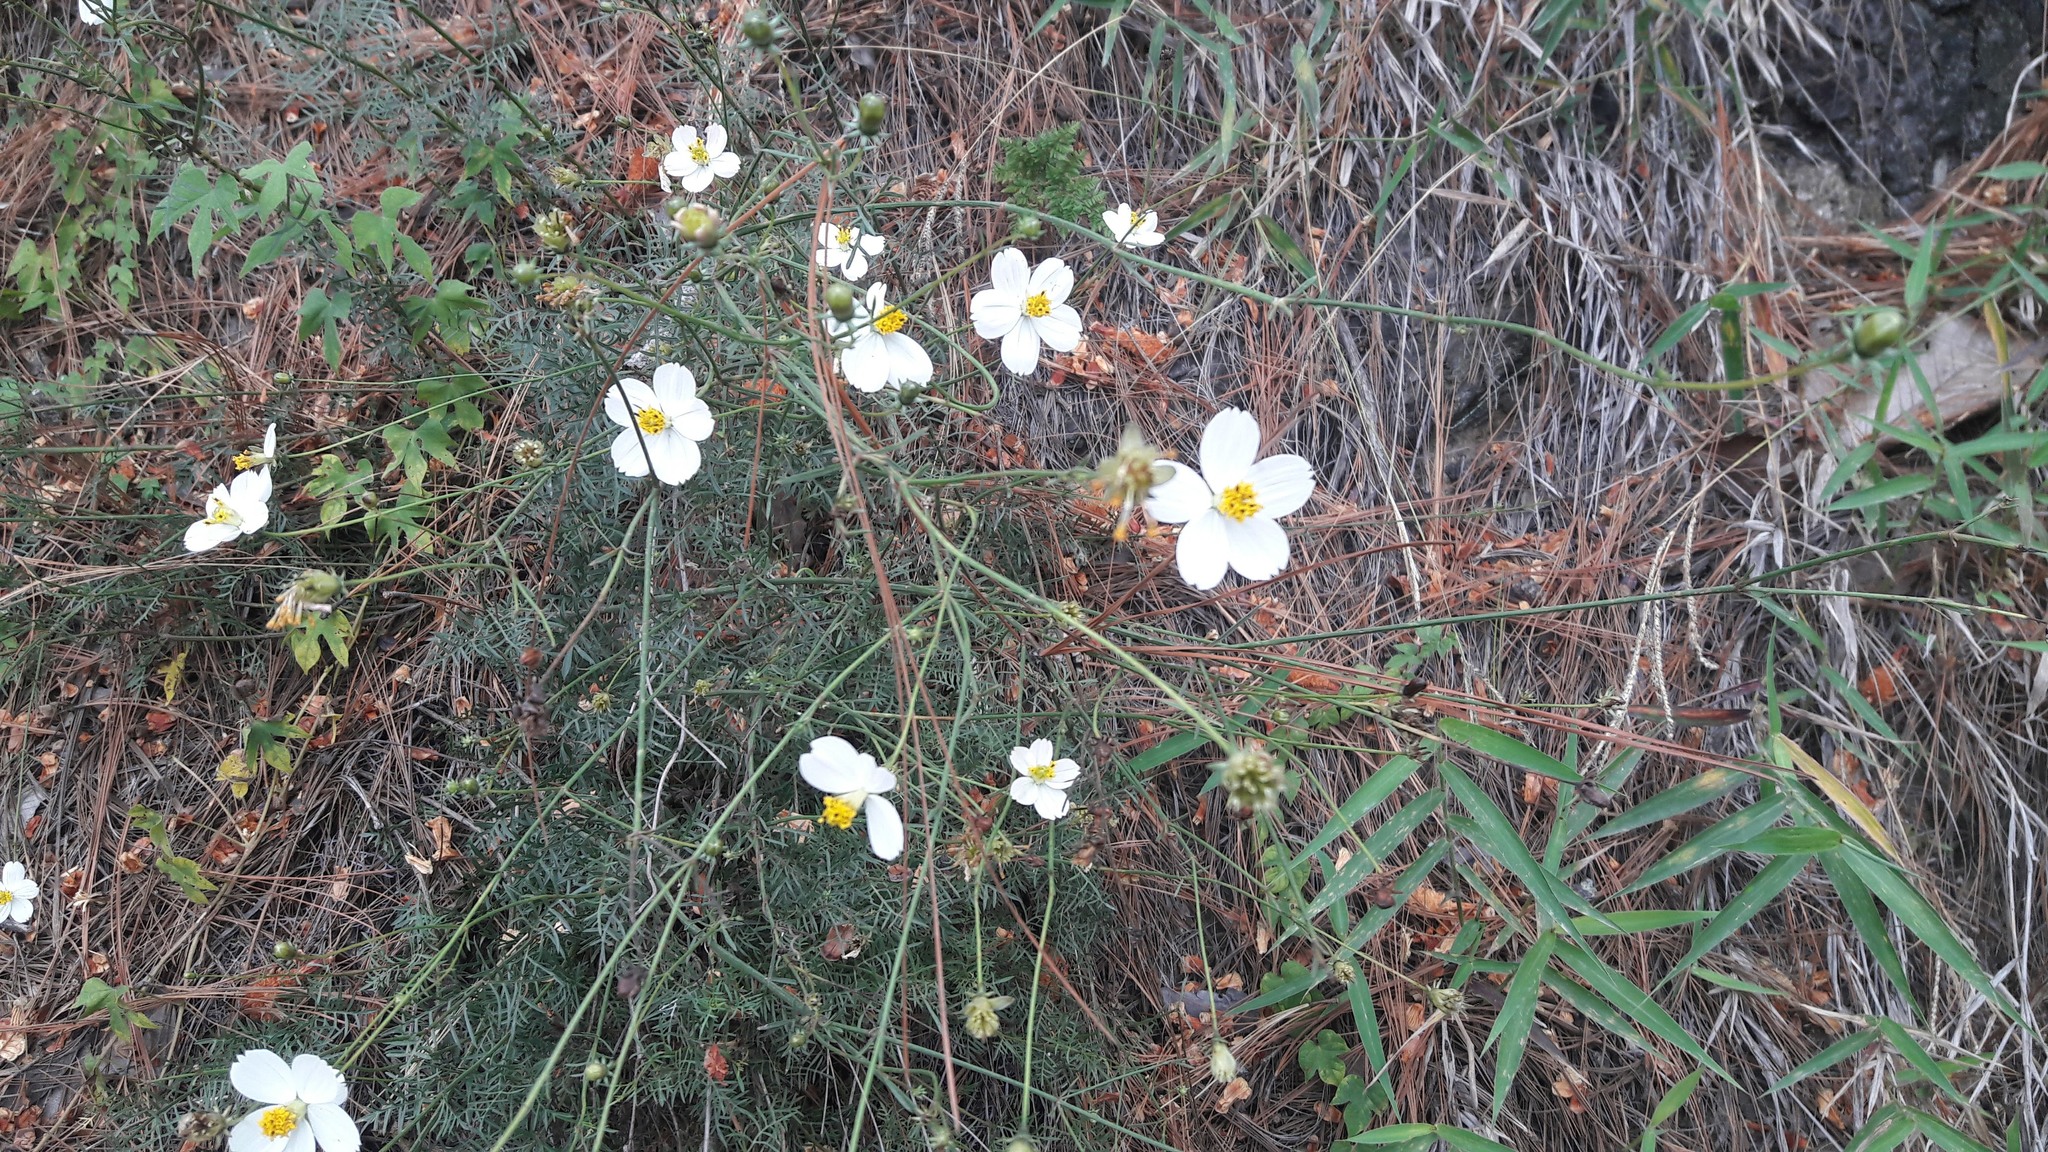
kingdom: Plantae
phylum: Tracheophyta
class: Magnoliopsida
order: Asterales
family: Asteraceae
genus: Cosmos
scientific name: Cosmos landii
